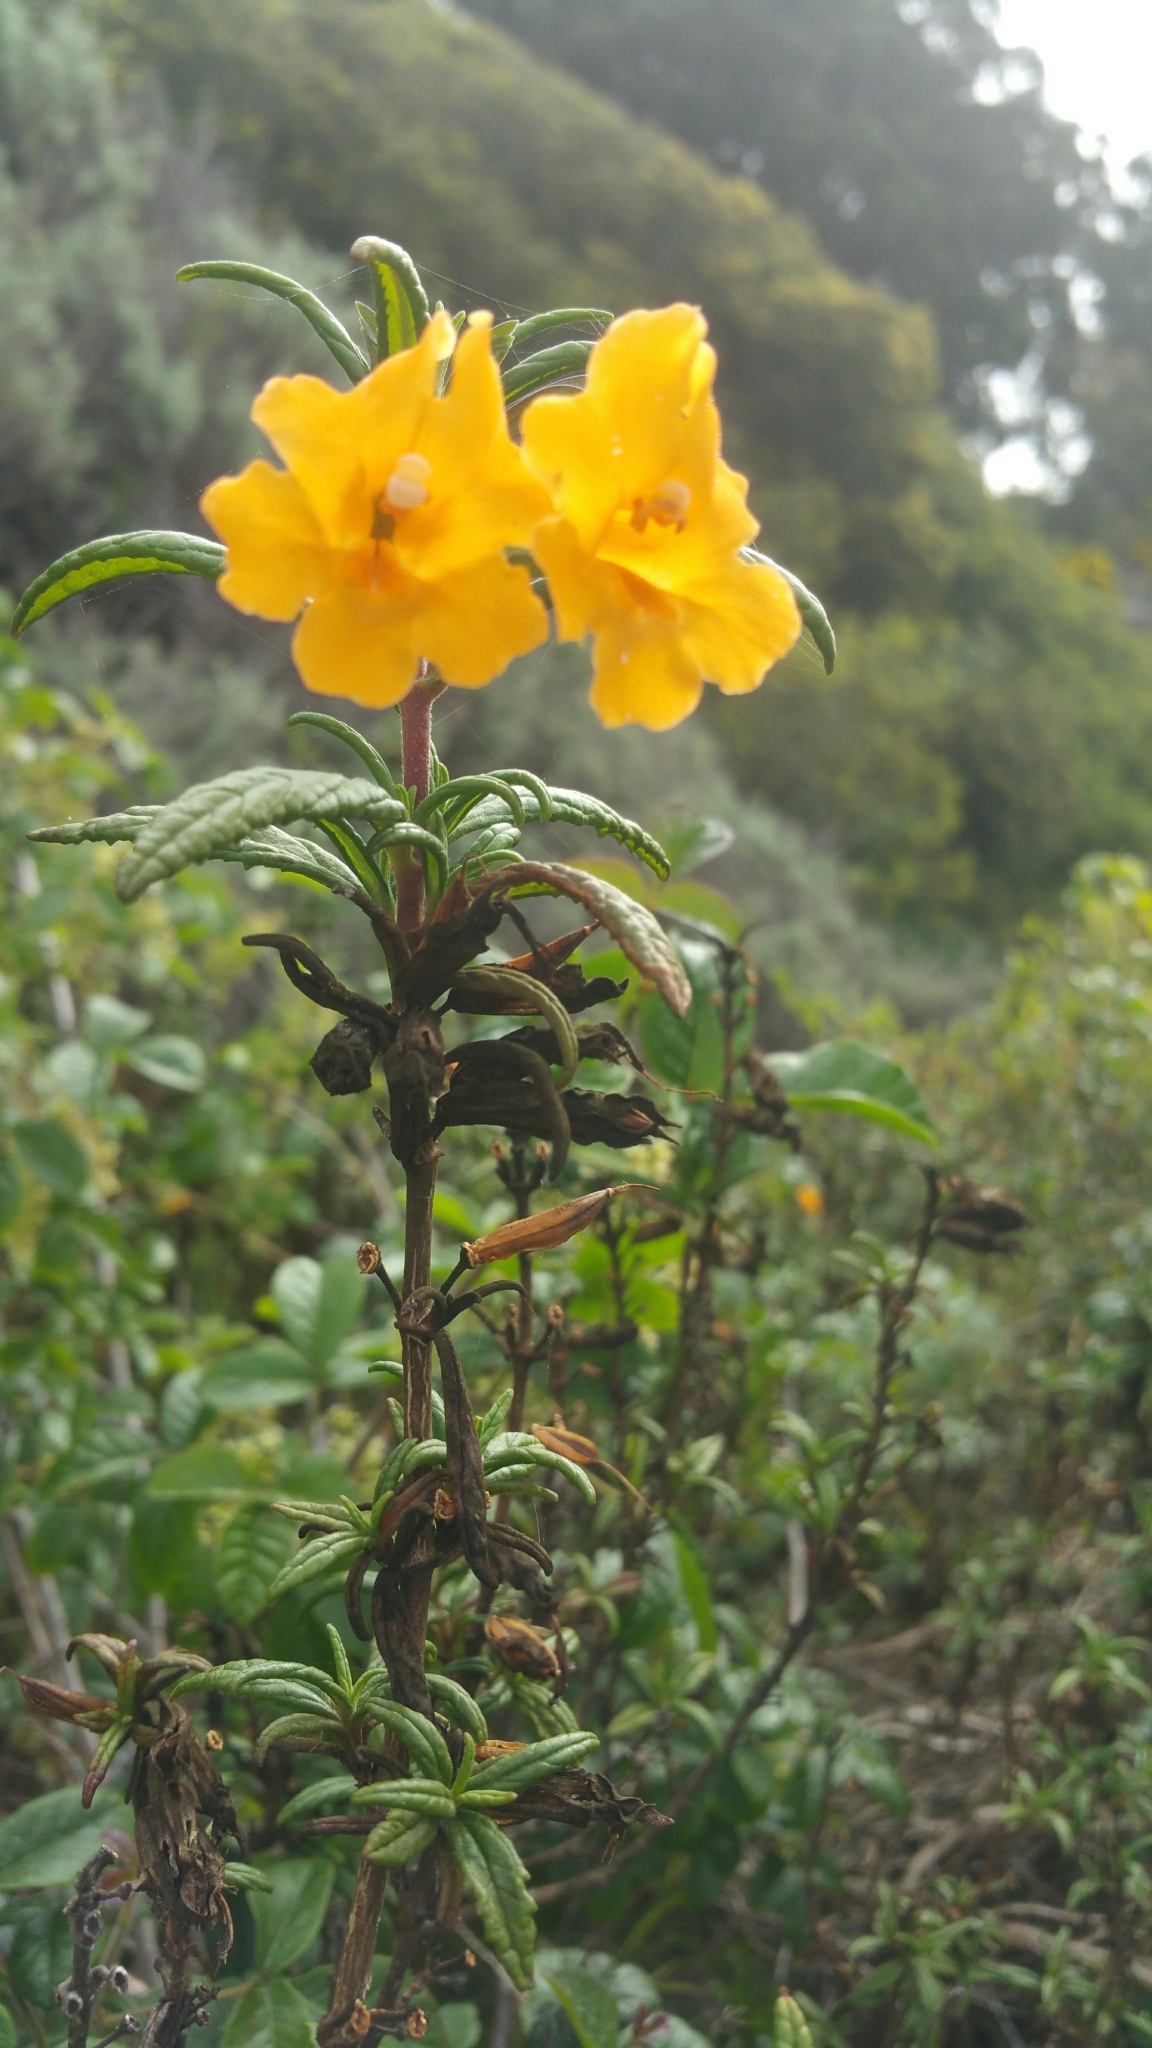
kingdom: Plantae
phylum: Tracheophyta
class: Magnoliopsida
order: Lamiales
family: Phrymaceae
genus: Diplacus
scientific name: Diplacus aurantiacus
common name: Bush monkey-flower
